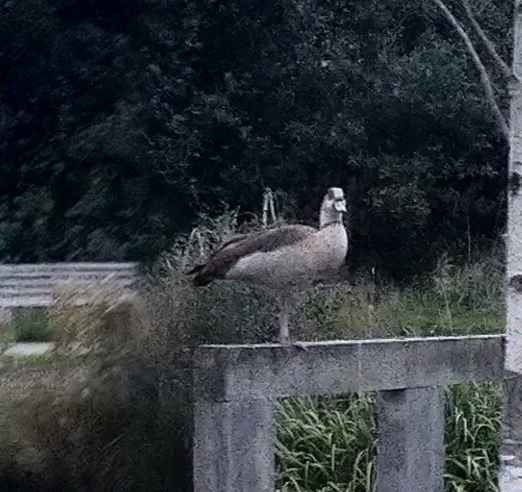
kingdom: Animalia
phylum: Chordata
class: Aves
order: Anseriformes
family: Anatidae
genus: Alopochen
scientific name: Alopochen aegyptiaca
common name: Egyptian goose
